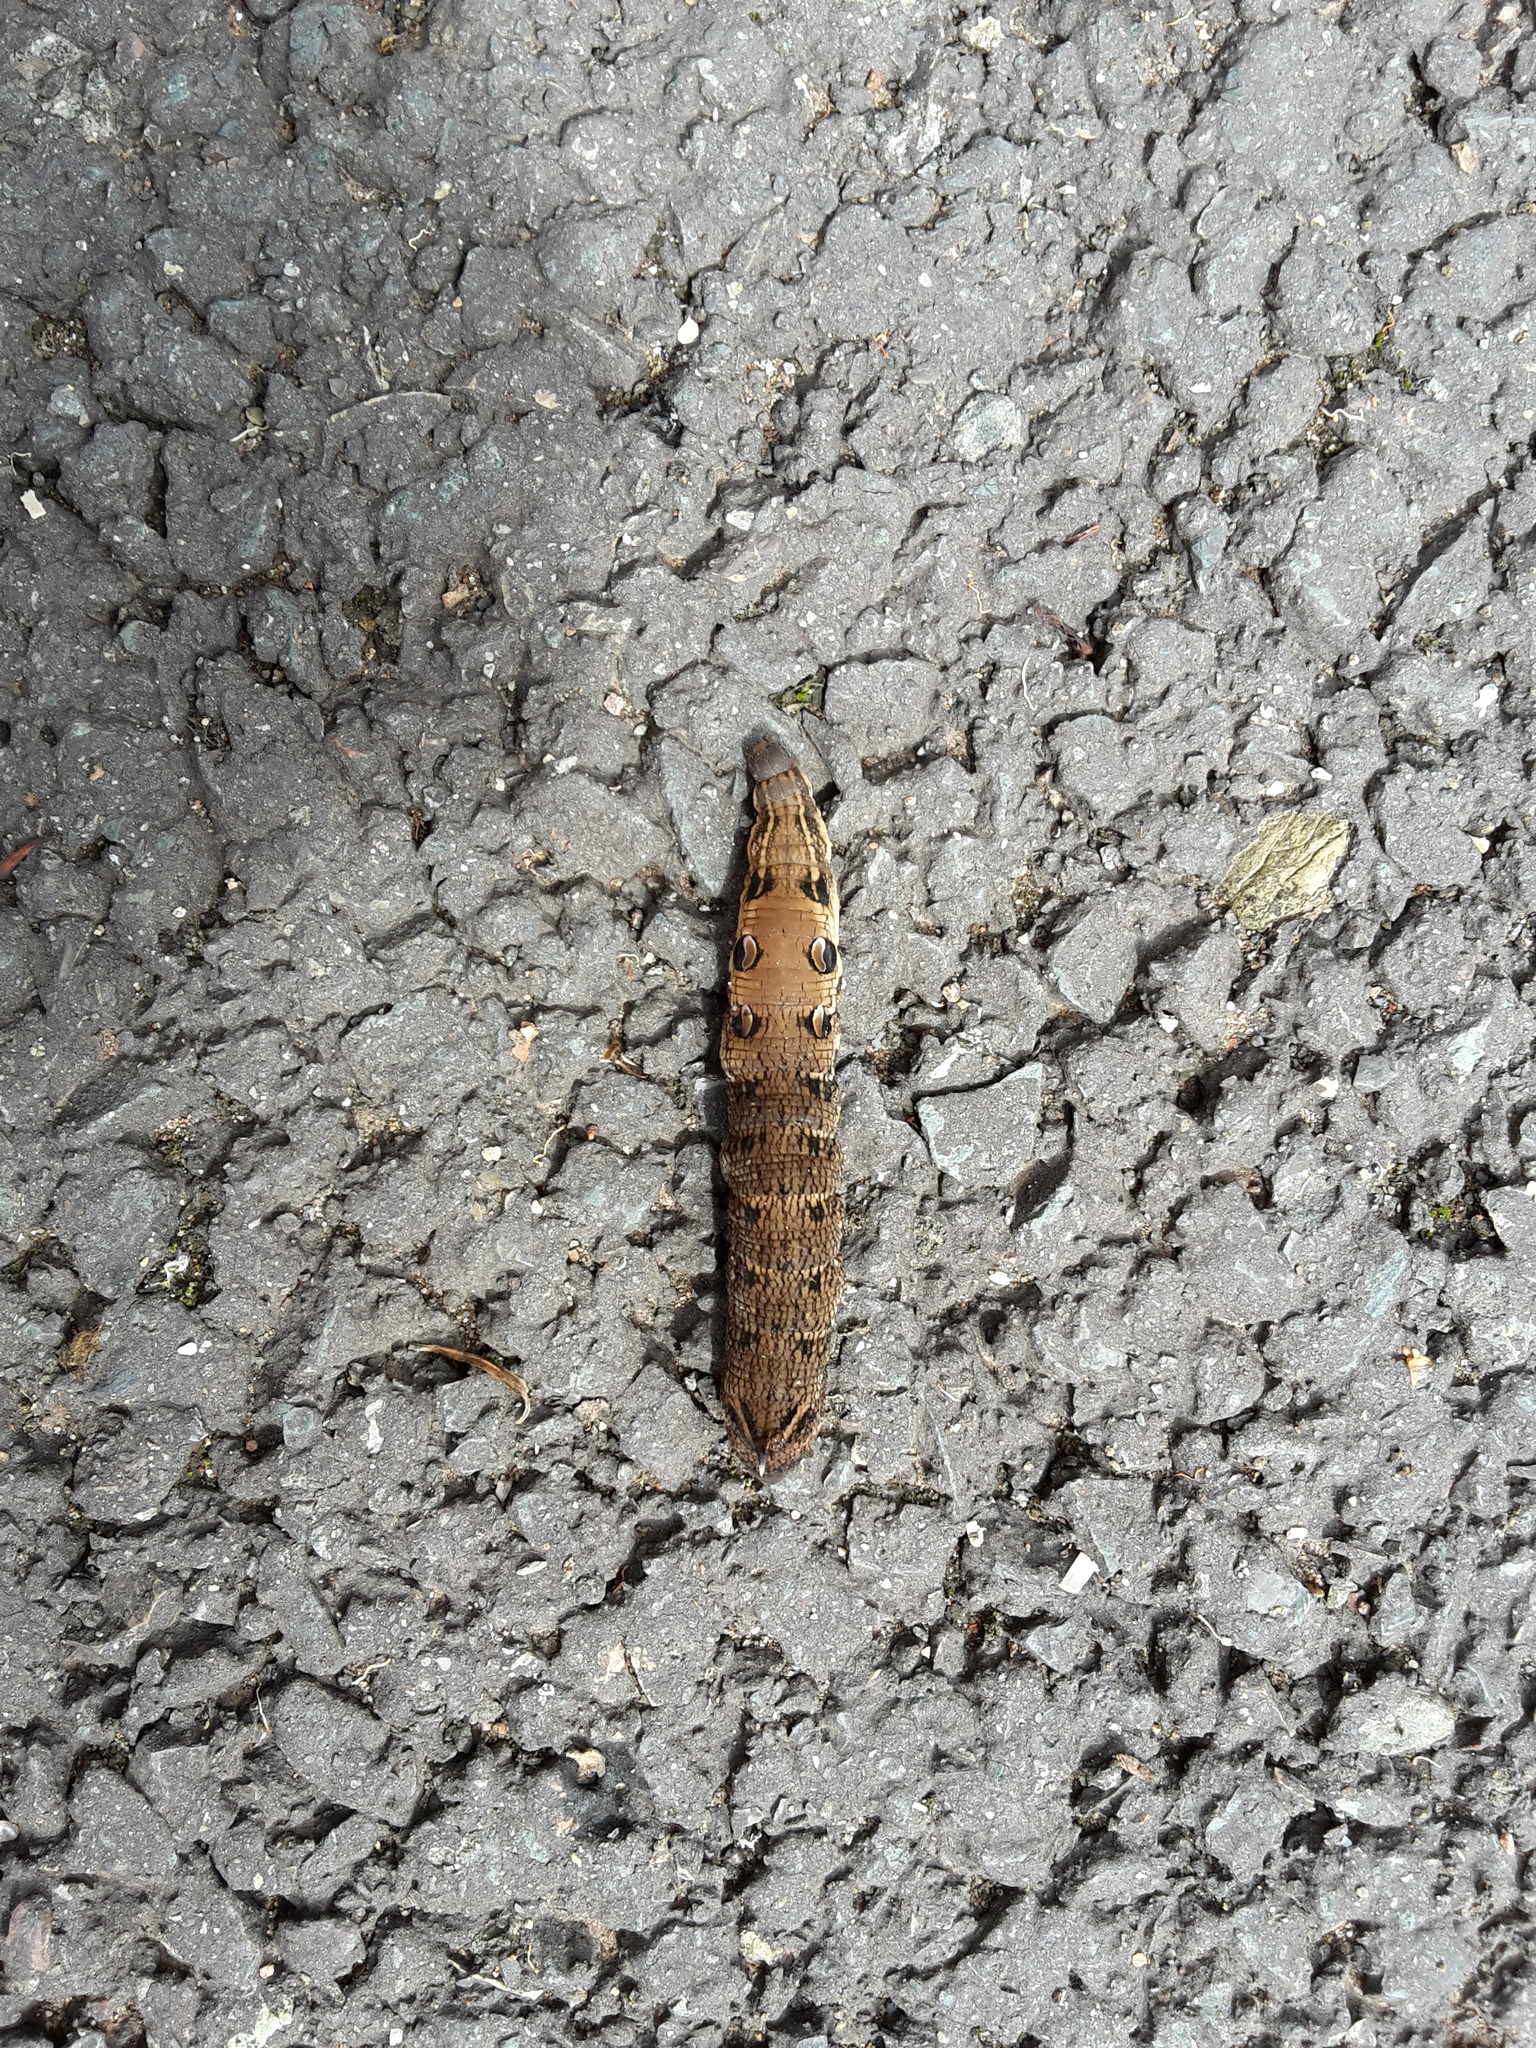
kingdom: Animalia
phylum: Arthropoda
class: Insecta
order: Lepidoptera
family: Sphingidae
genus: Deilephila
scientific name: Deilephila elpenor
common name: Elephant hawk-moth
